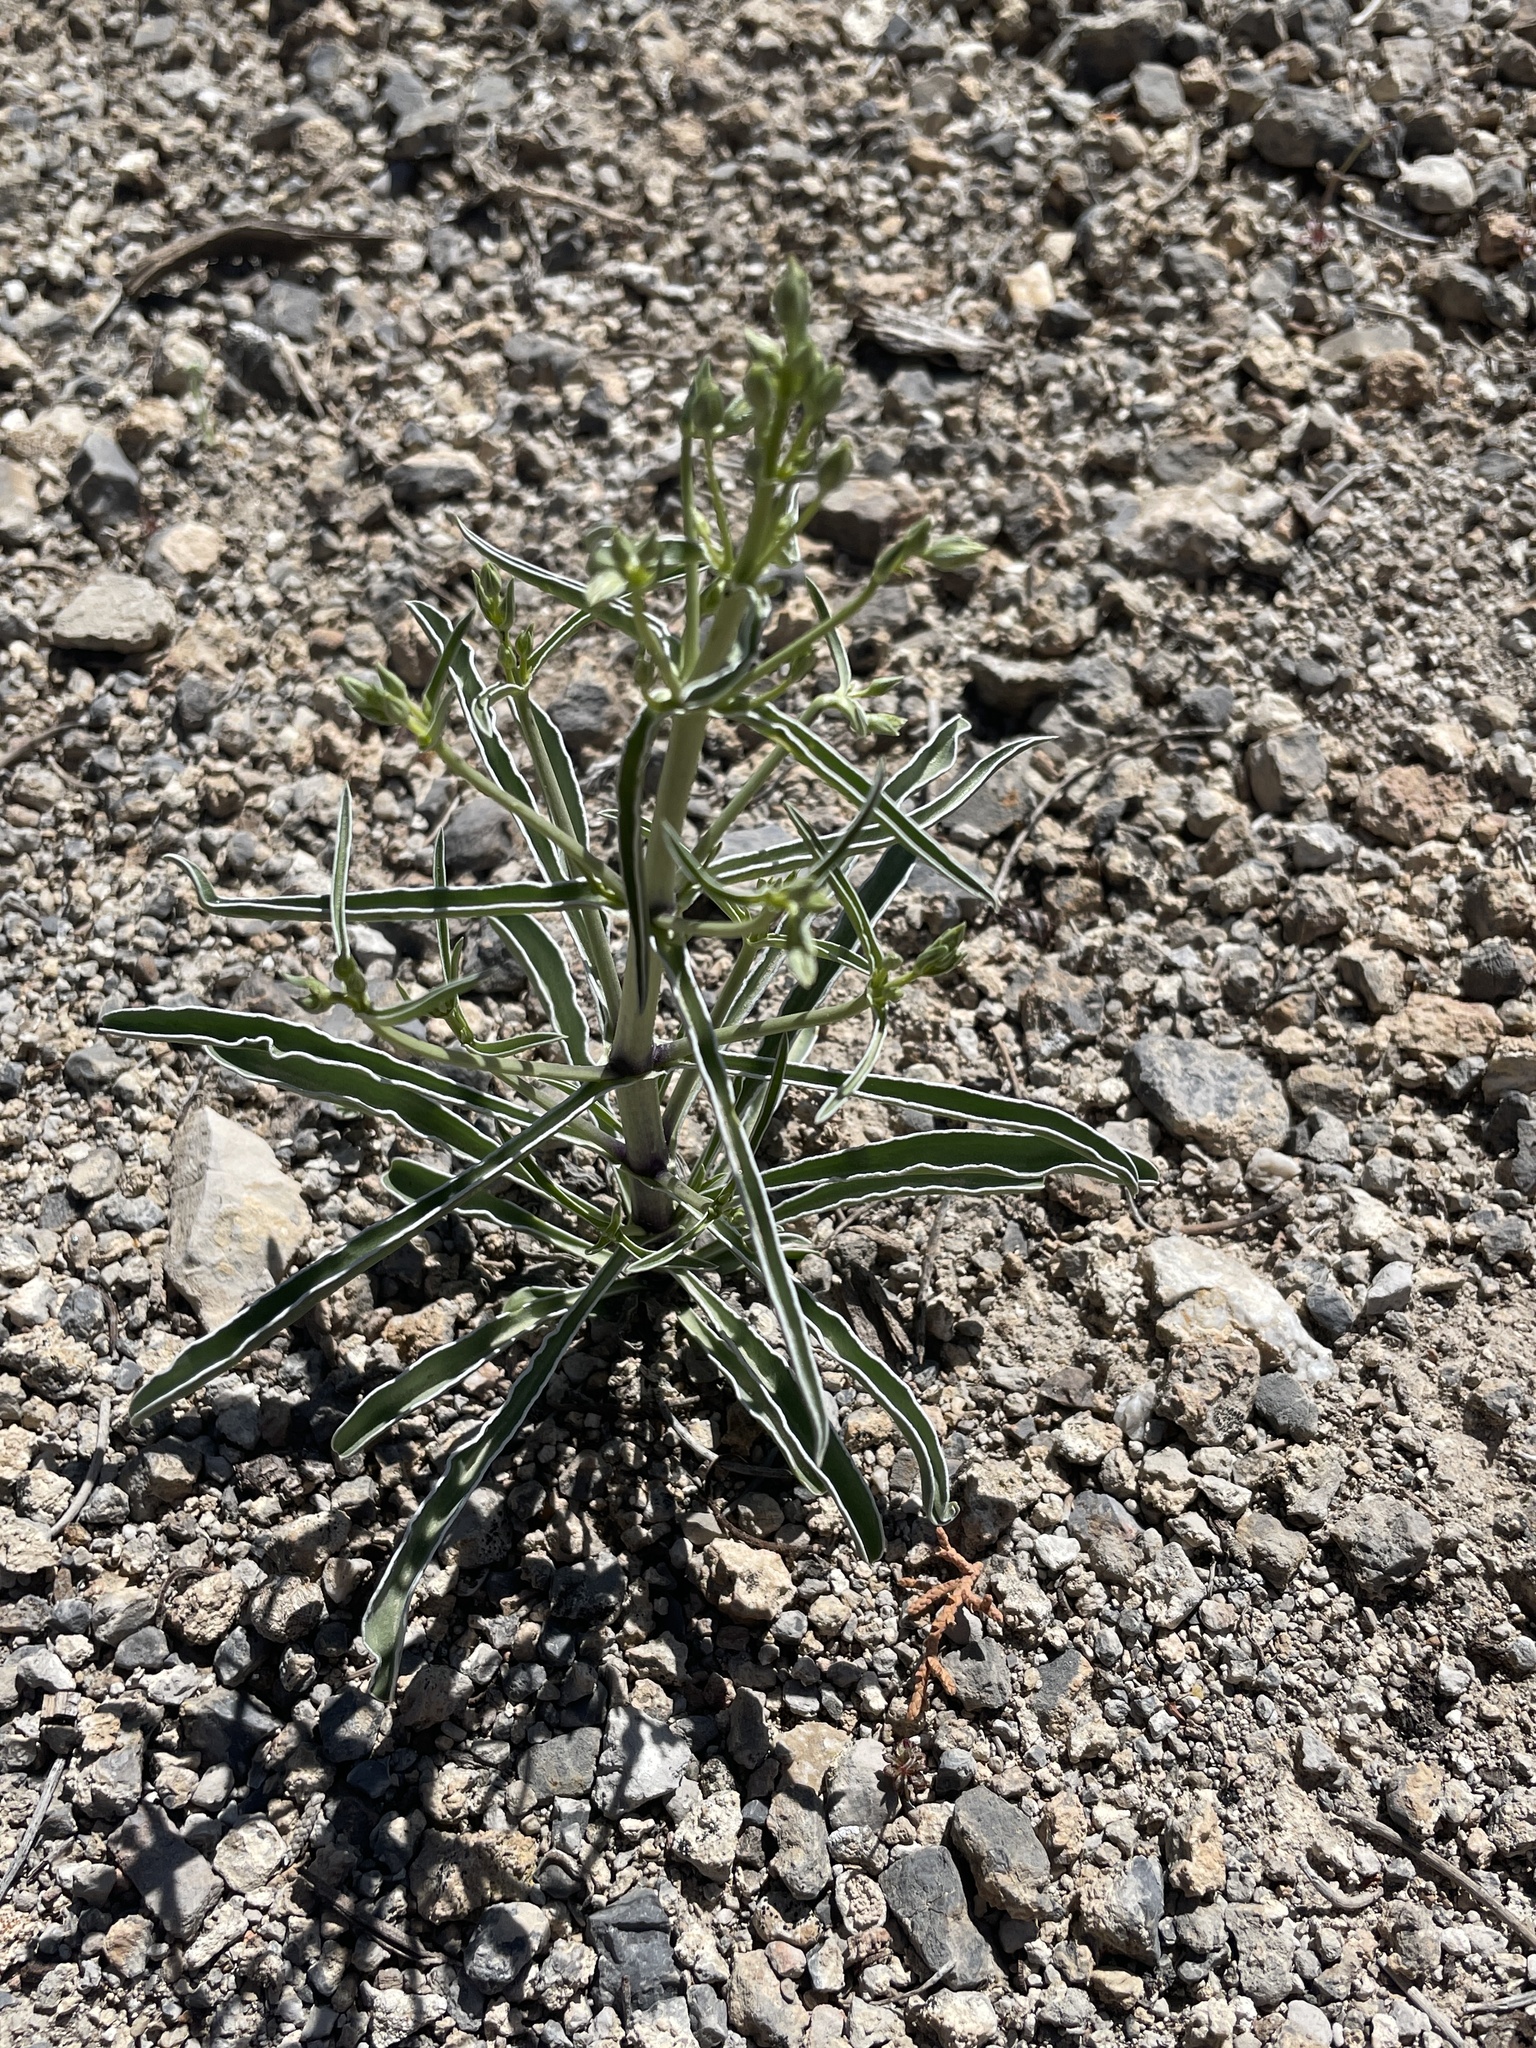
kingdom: Plantae
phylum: Tracheophyta
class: Magnoliopsida
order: Gentianales
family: Gentianaceae
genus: Frasera
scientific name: Frasera albomarginata
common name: Desert frasera
